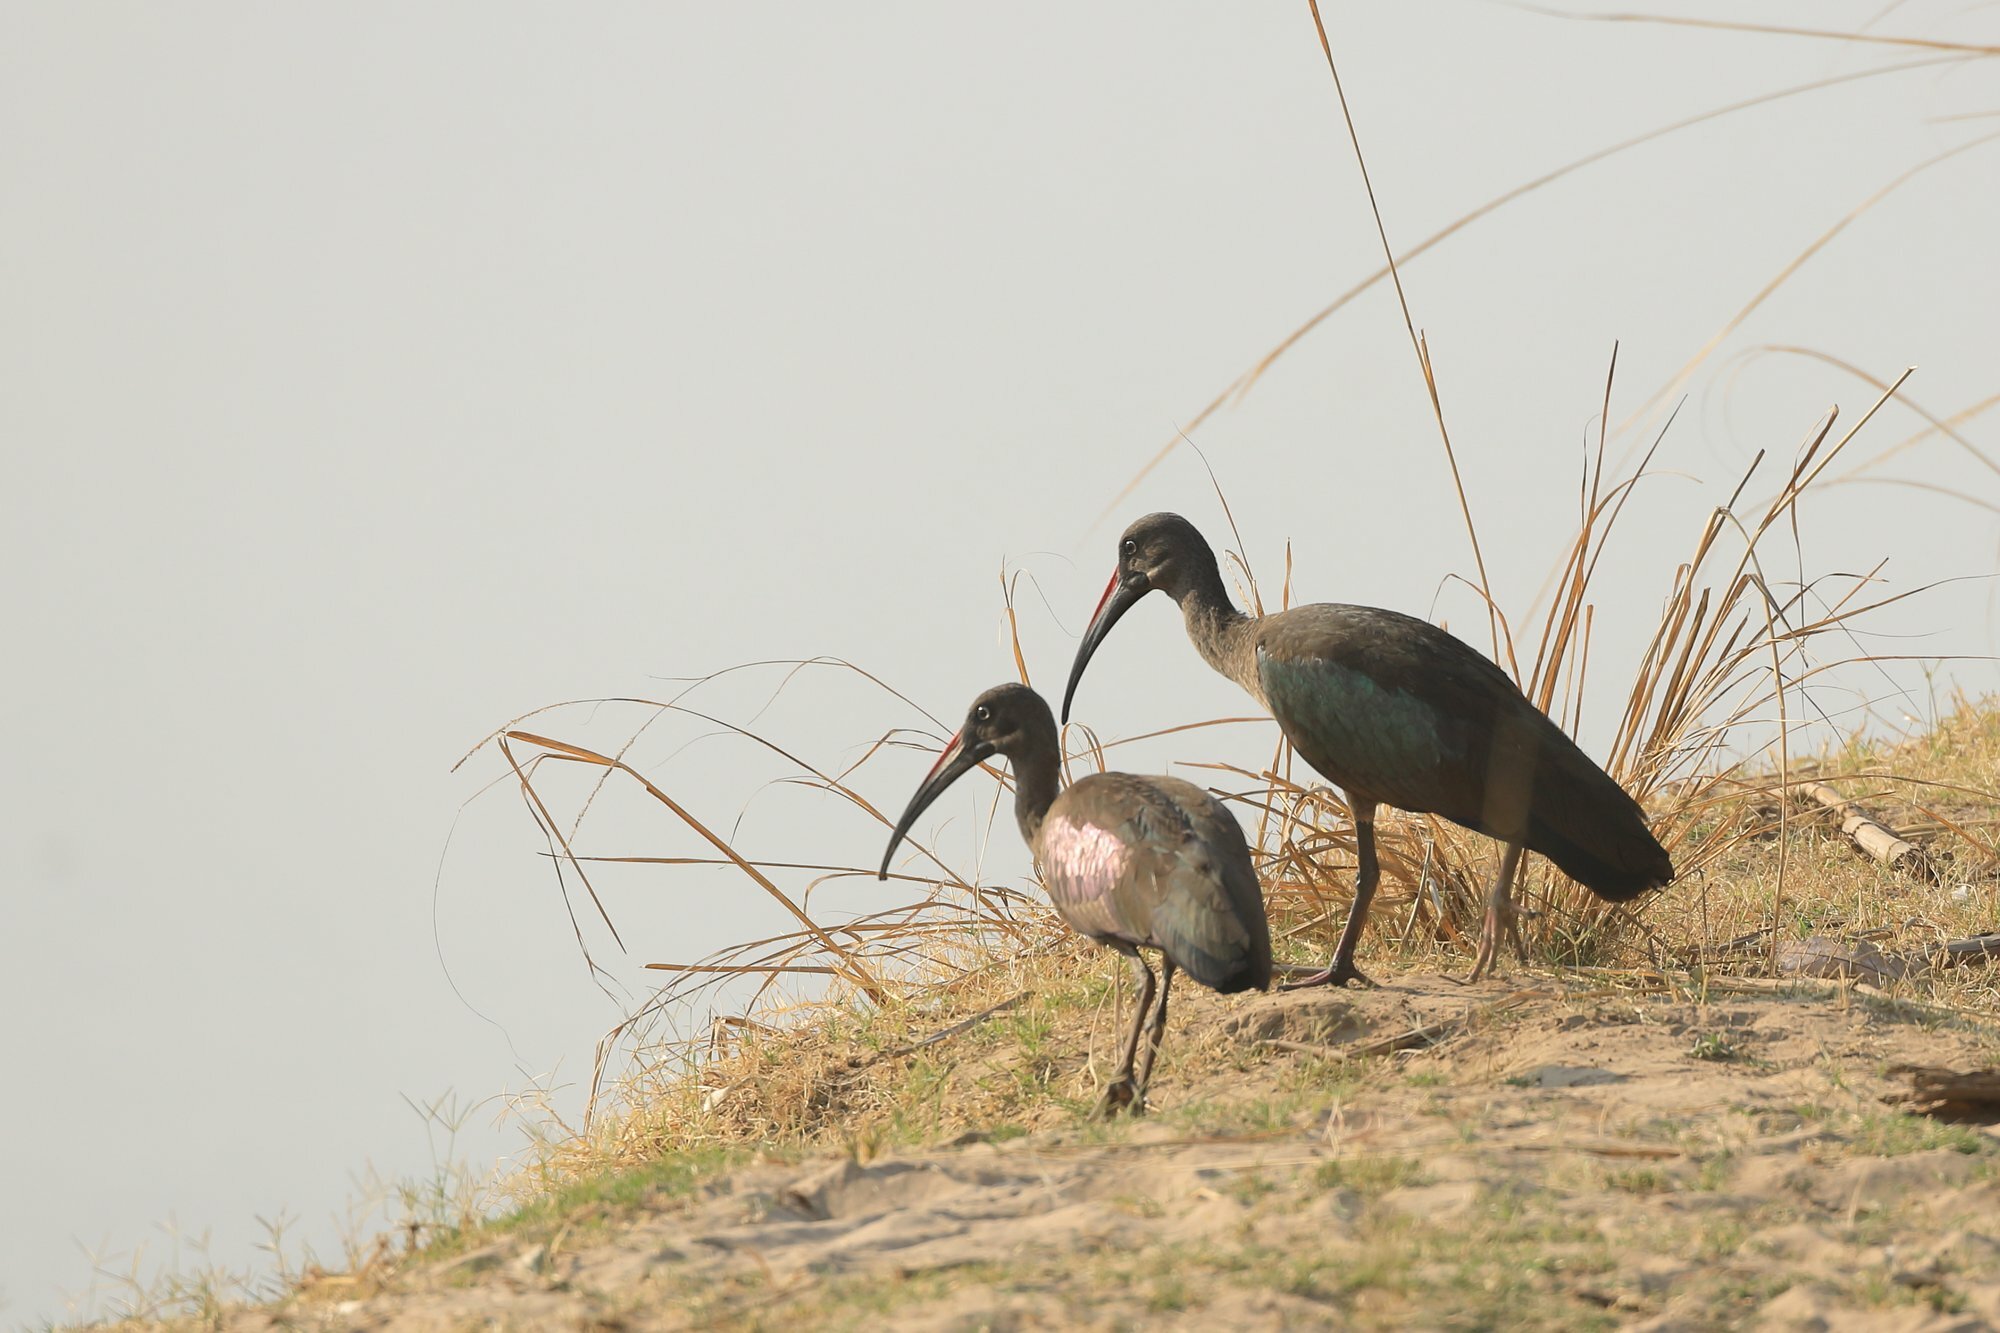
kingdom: Animalia
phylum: Chordata
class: Aves
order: Pelecaniformes
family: Threskiornithidae
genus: Bostrychia
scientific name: Bostrychia hagedash
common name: Hadada ibis
